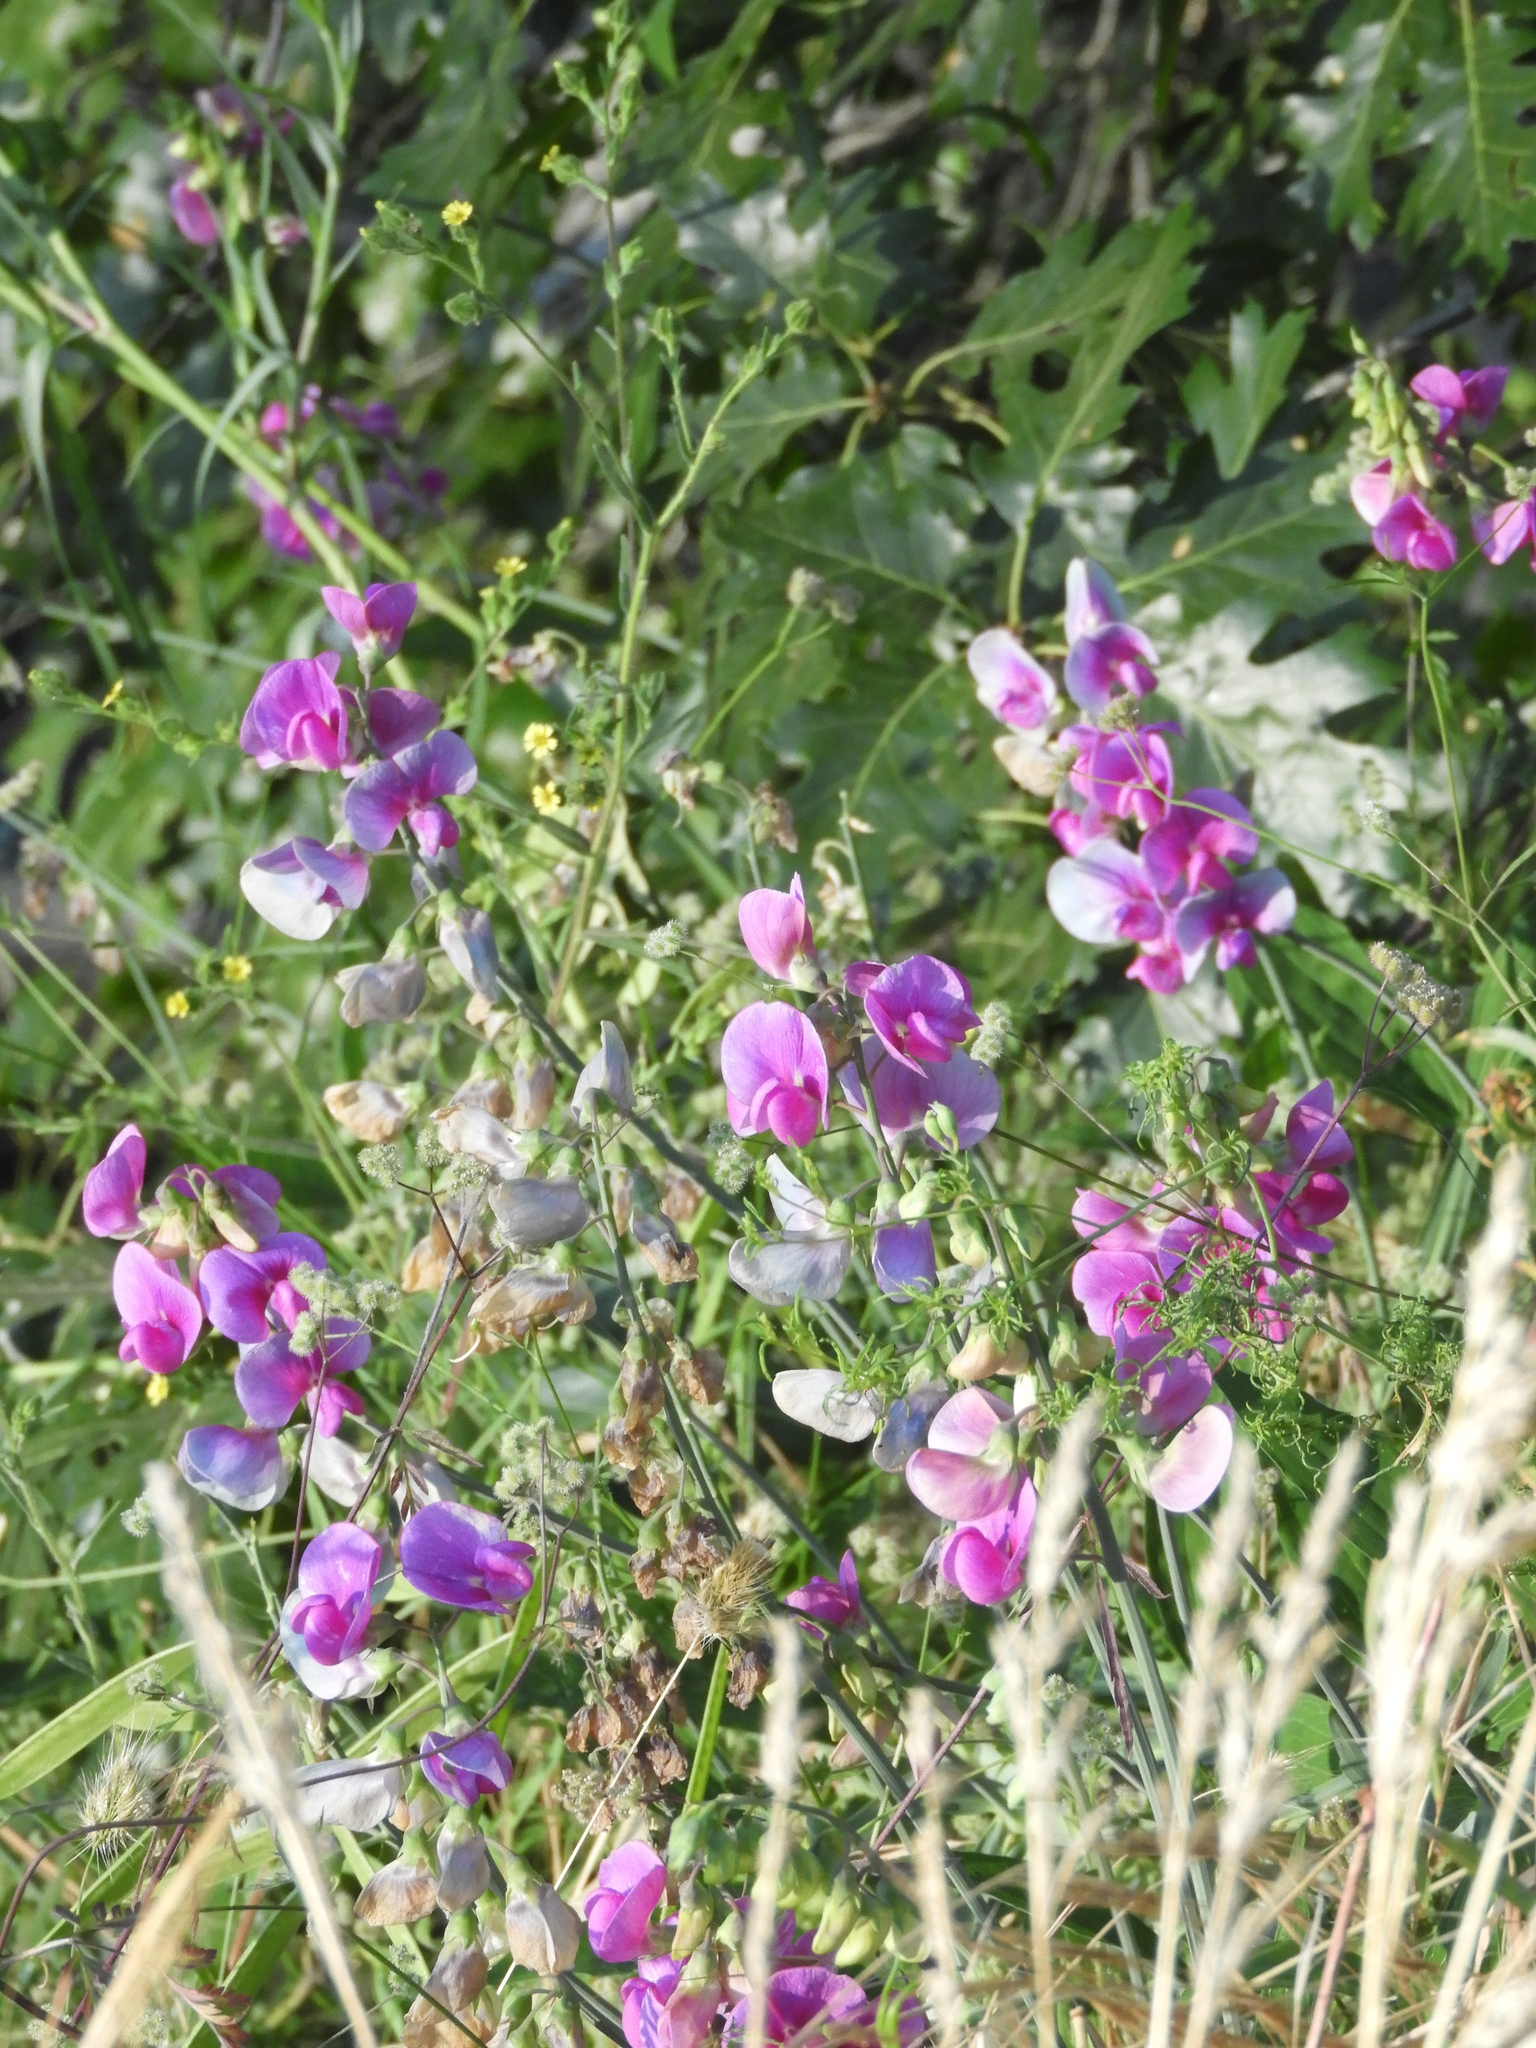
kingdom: Plantae
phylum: Tracheophyta
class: Magnoliopsida
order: Fabales
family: Fabaceae
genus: Lathyrus
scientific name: Lathyrus latifolius
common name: Perennial pea
